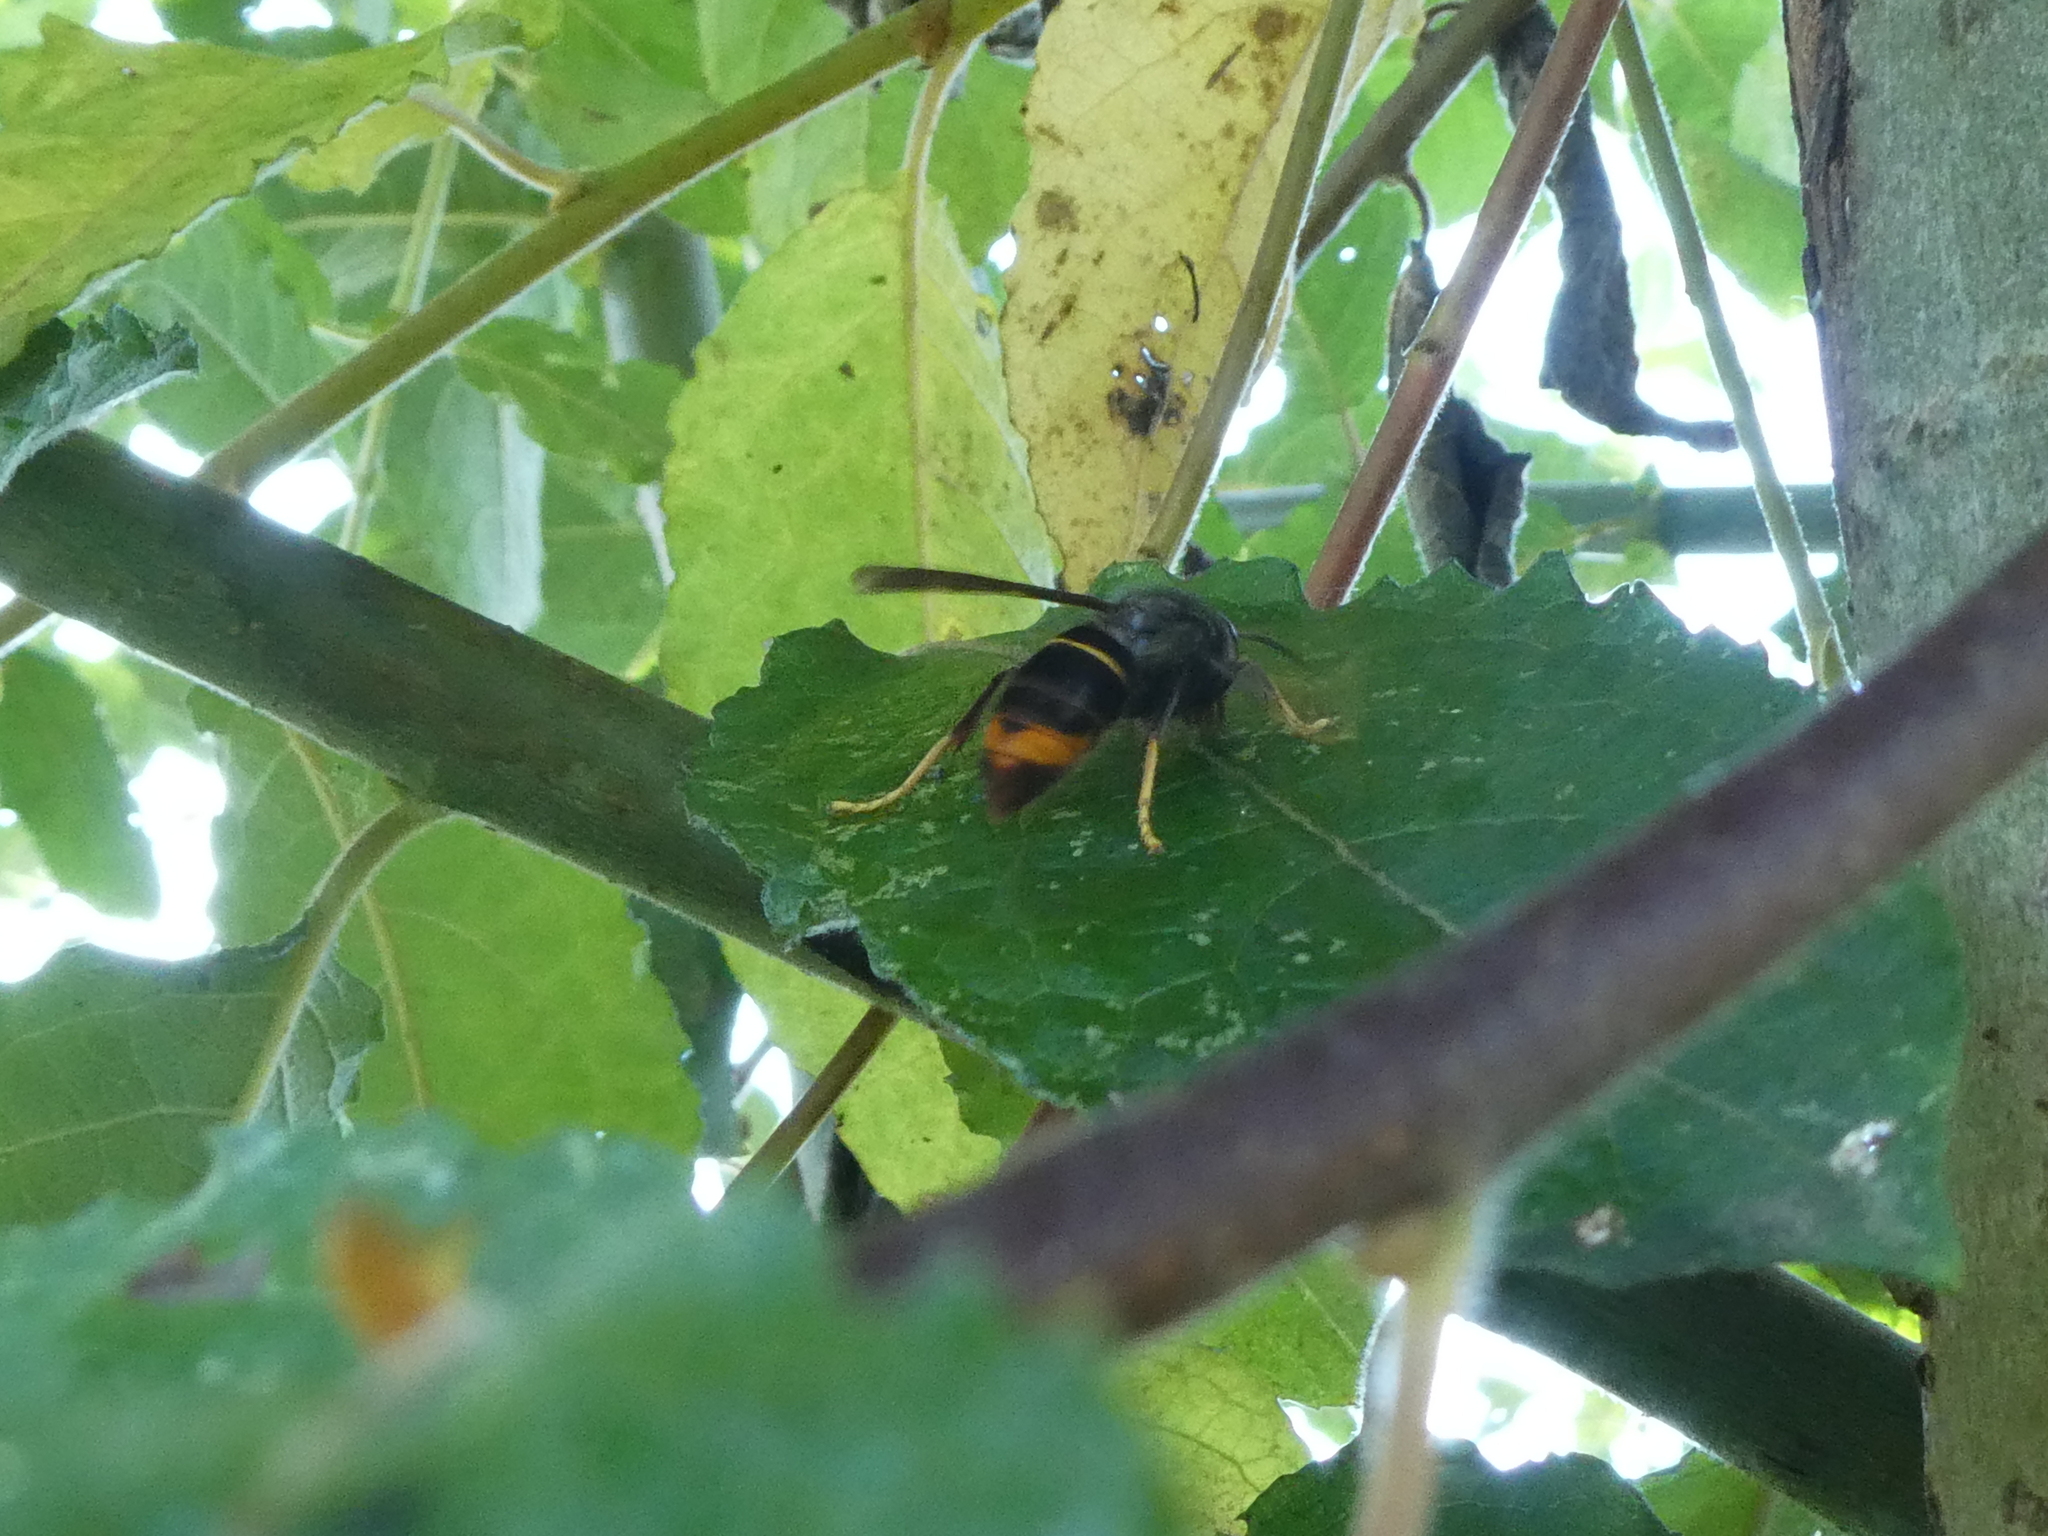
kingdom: Animalia
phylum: Arthropoda
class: Insecta
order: Hymenoptera
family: Vespidae
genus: Vespa
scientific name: Vespa velutina
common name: Asian hornet
